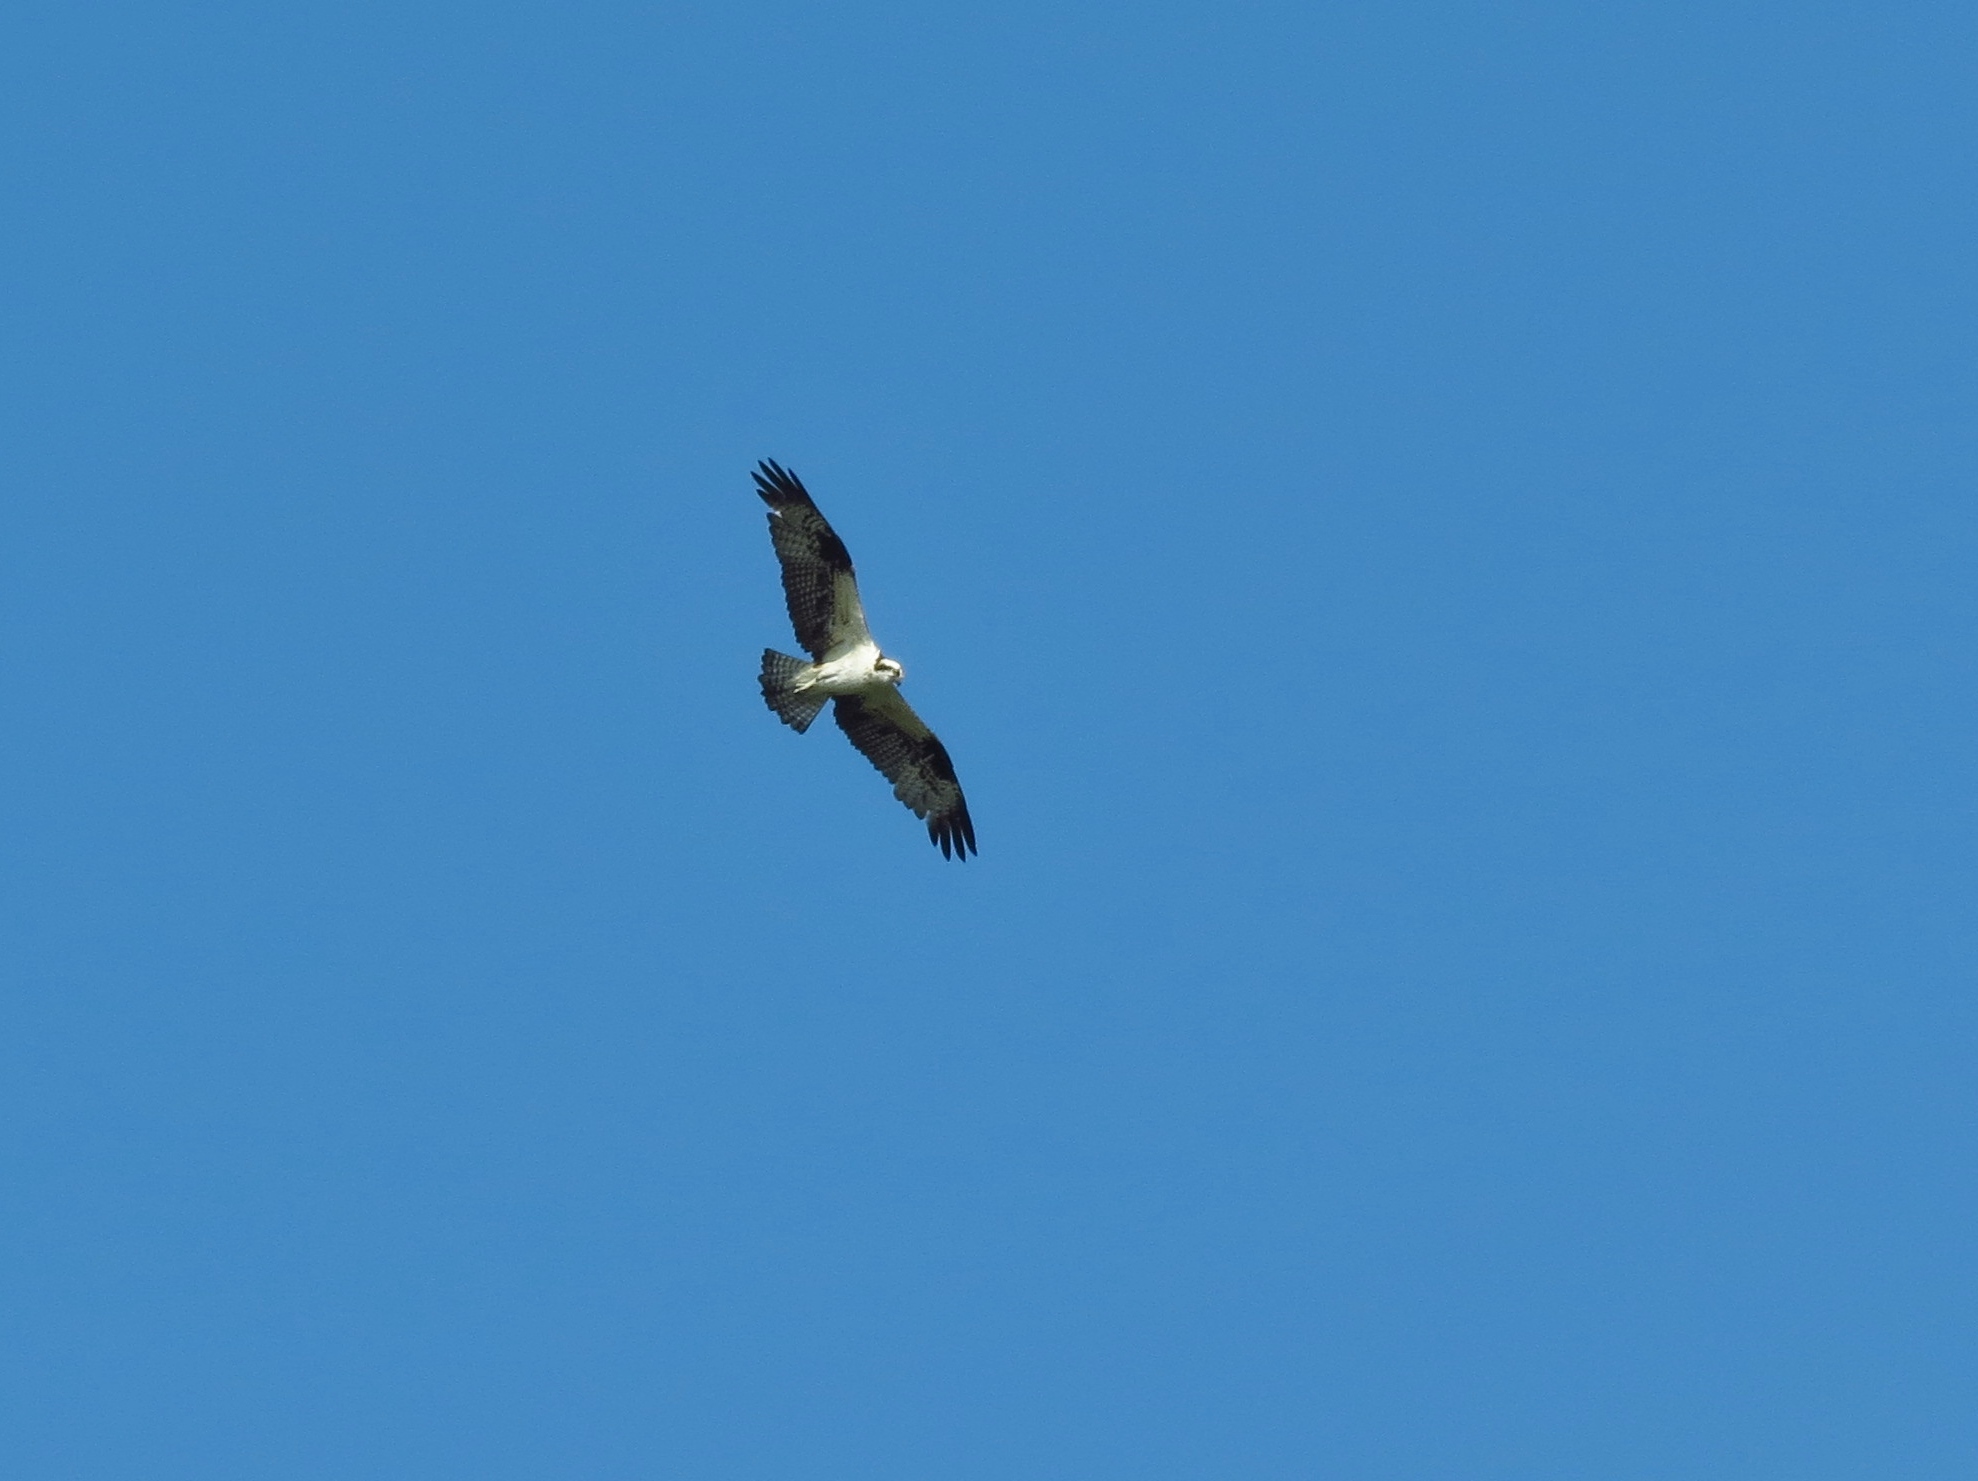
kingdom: Animalia
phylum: Chordata
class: Aves
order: Accipitriformes
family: Pandionidae
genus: Pandion
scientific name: Pandion haliaetus
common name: Osprey
